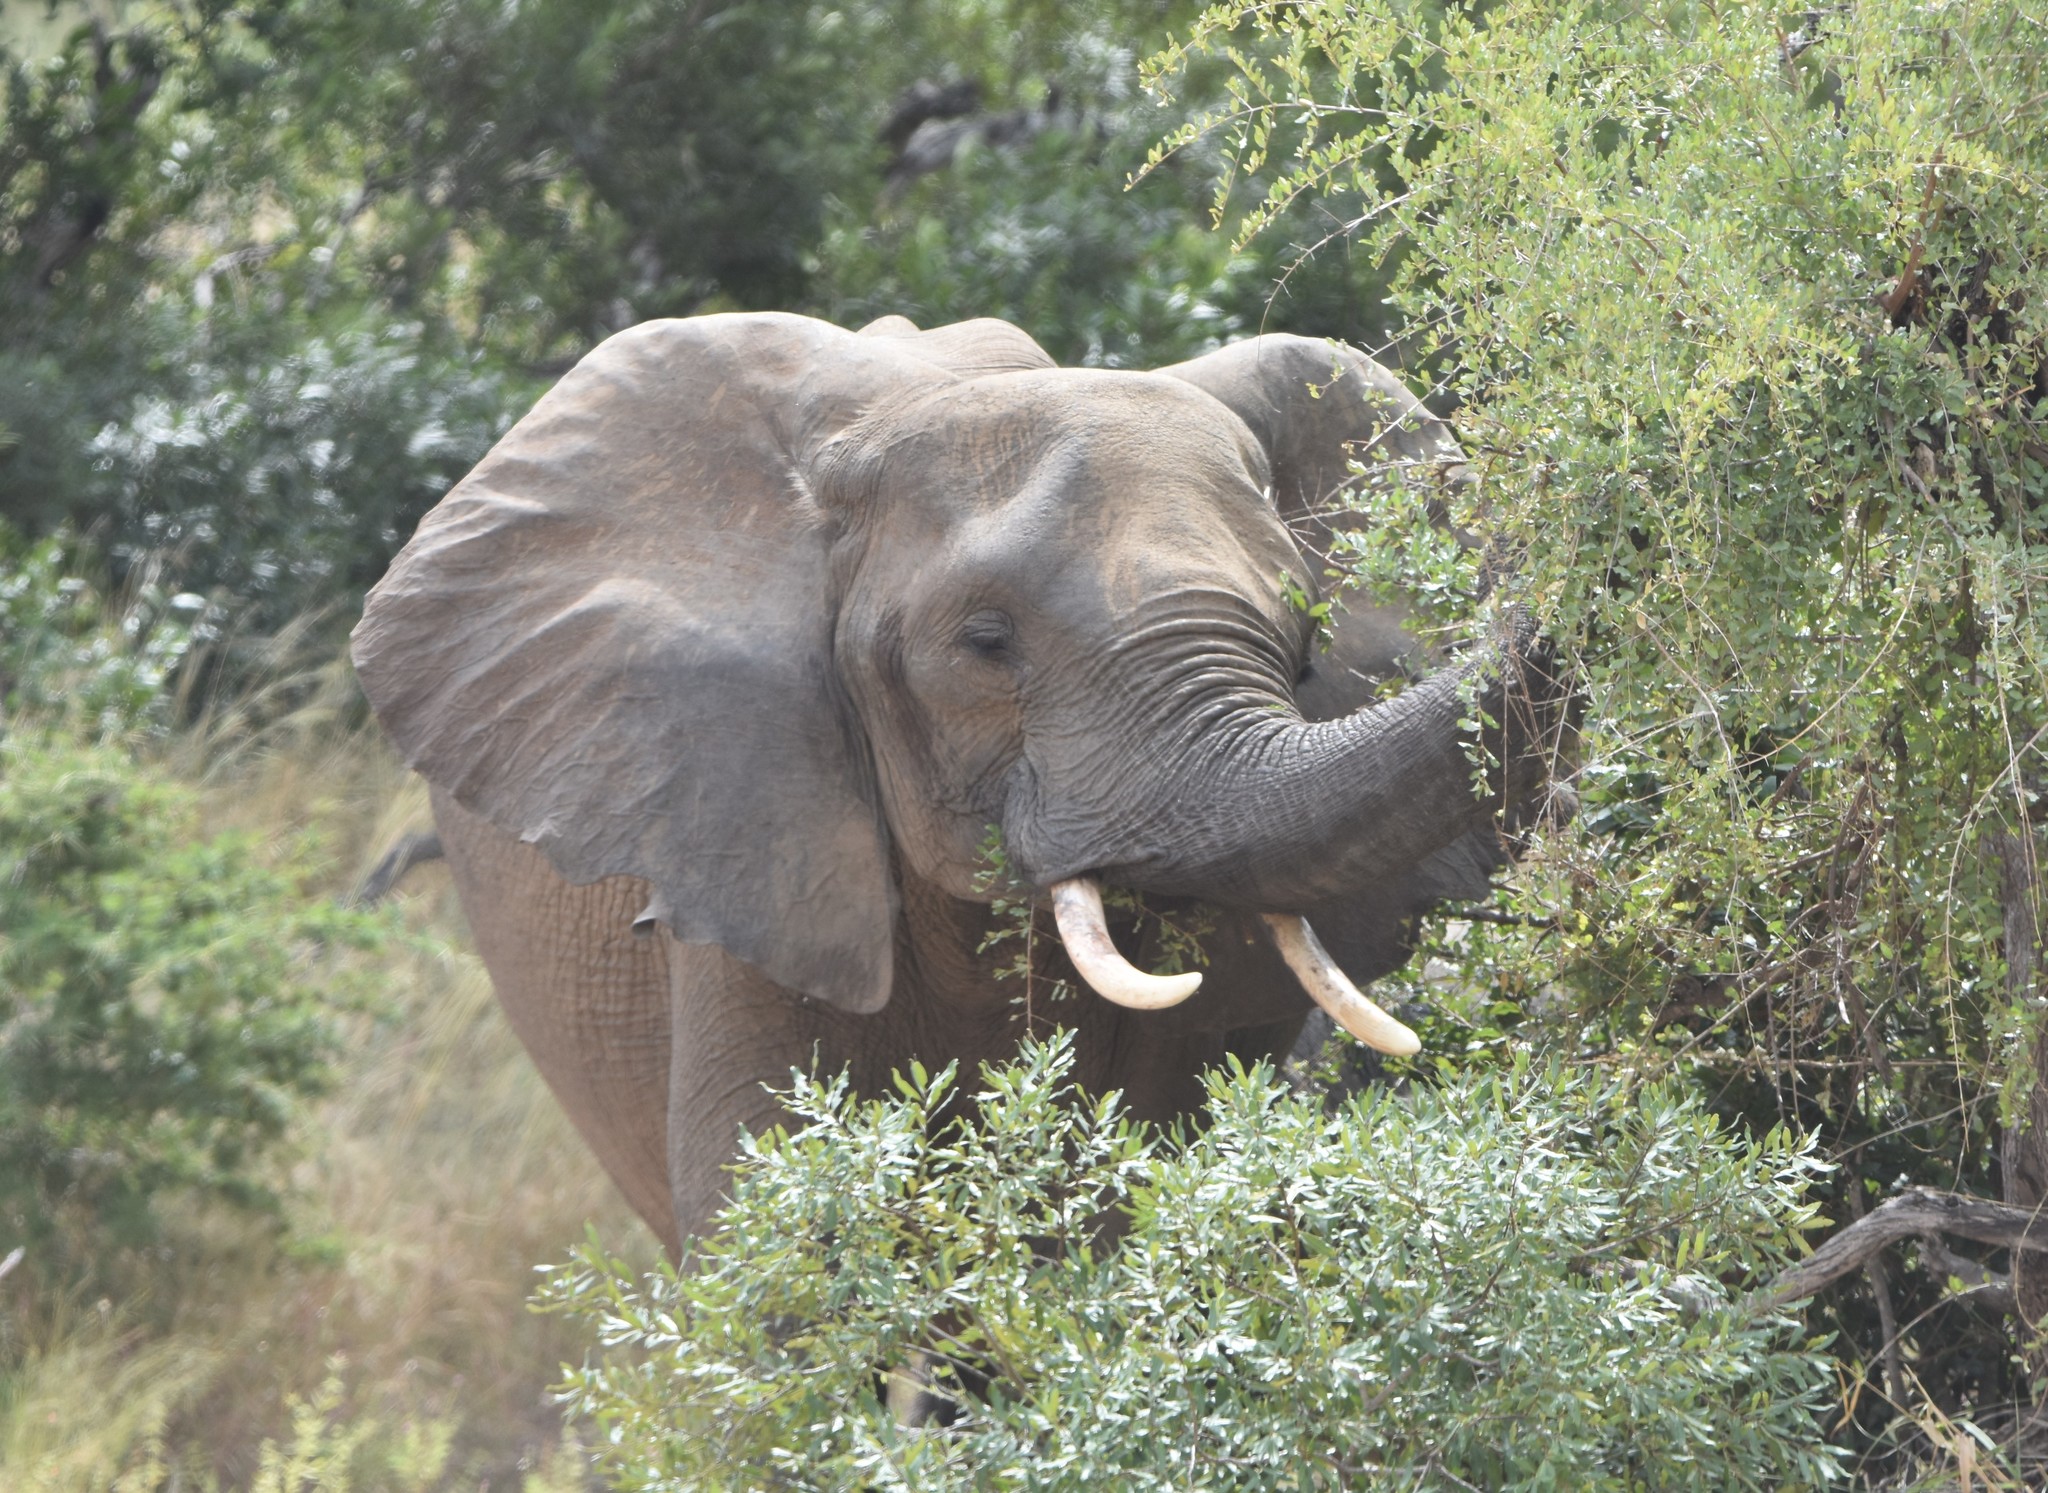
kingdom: Animalia
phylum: Chordata
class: Mammalia
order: Proboscidea
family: Elephantidae
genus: Loxodonta
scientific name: Loxodonta africana
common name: African elephant
